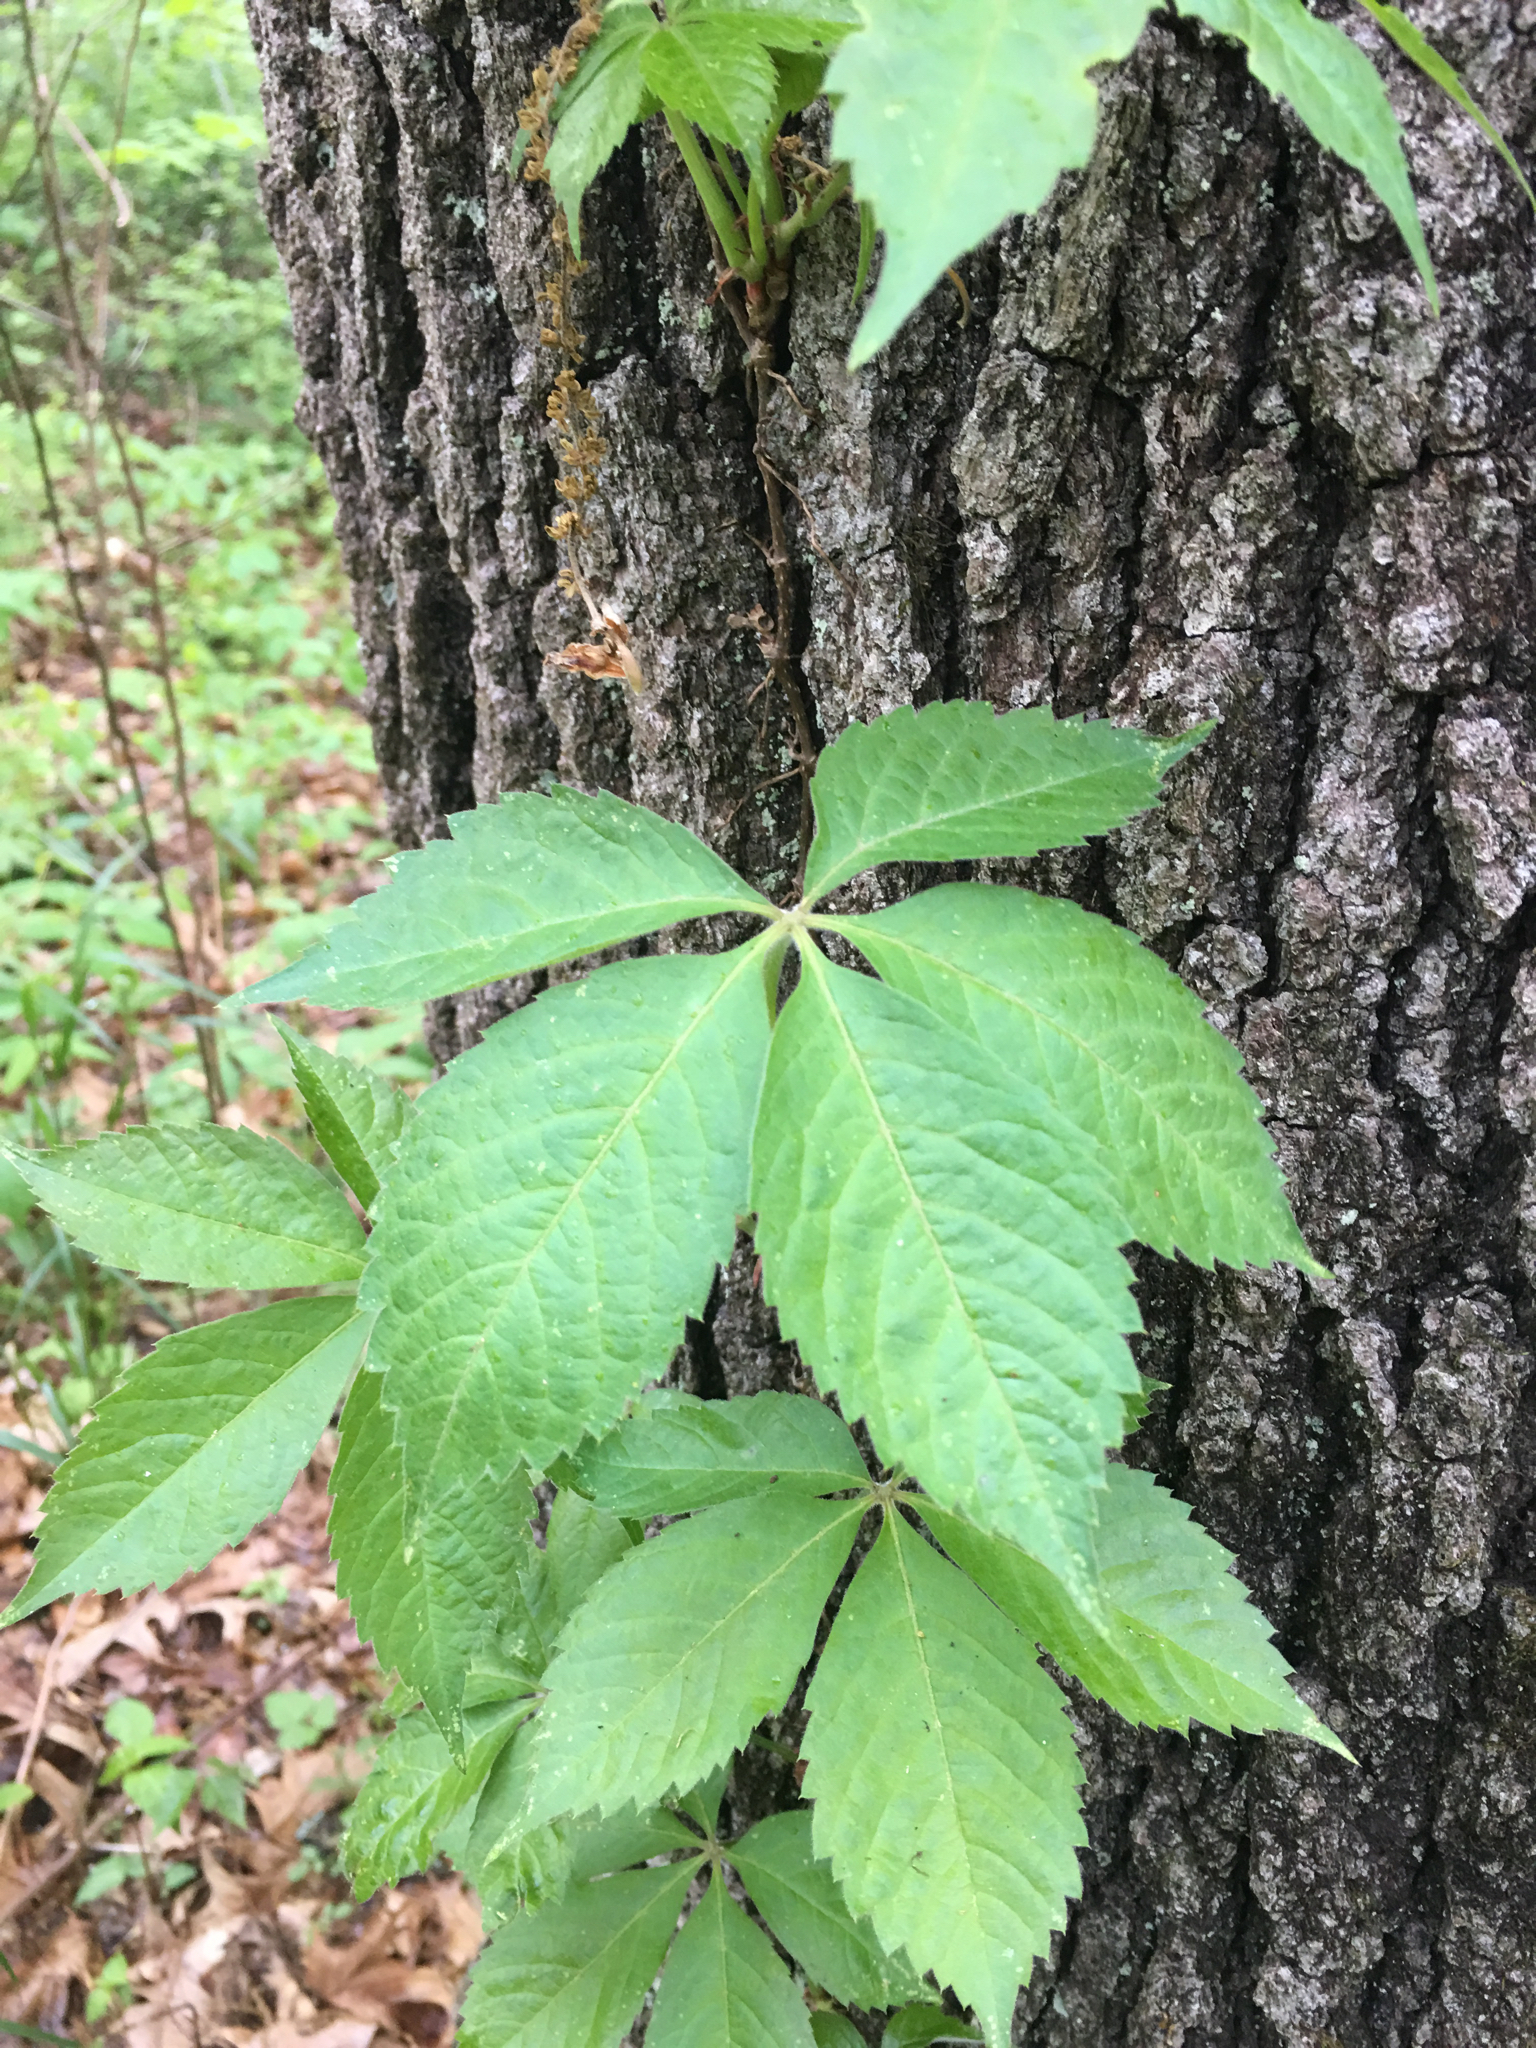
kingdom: Plantae
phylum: Tracheophyta
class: Magnoliopsida
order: Vitales
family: Vitaceae
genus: Parthenocissus
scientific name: Parthenocissus quinquefolia
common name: Virginia-creeper
